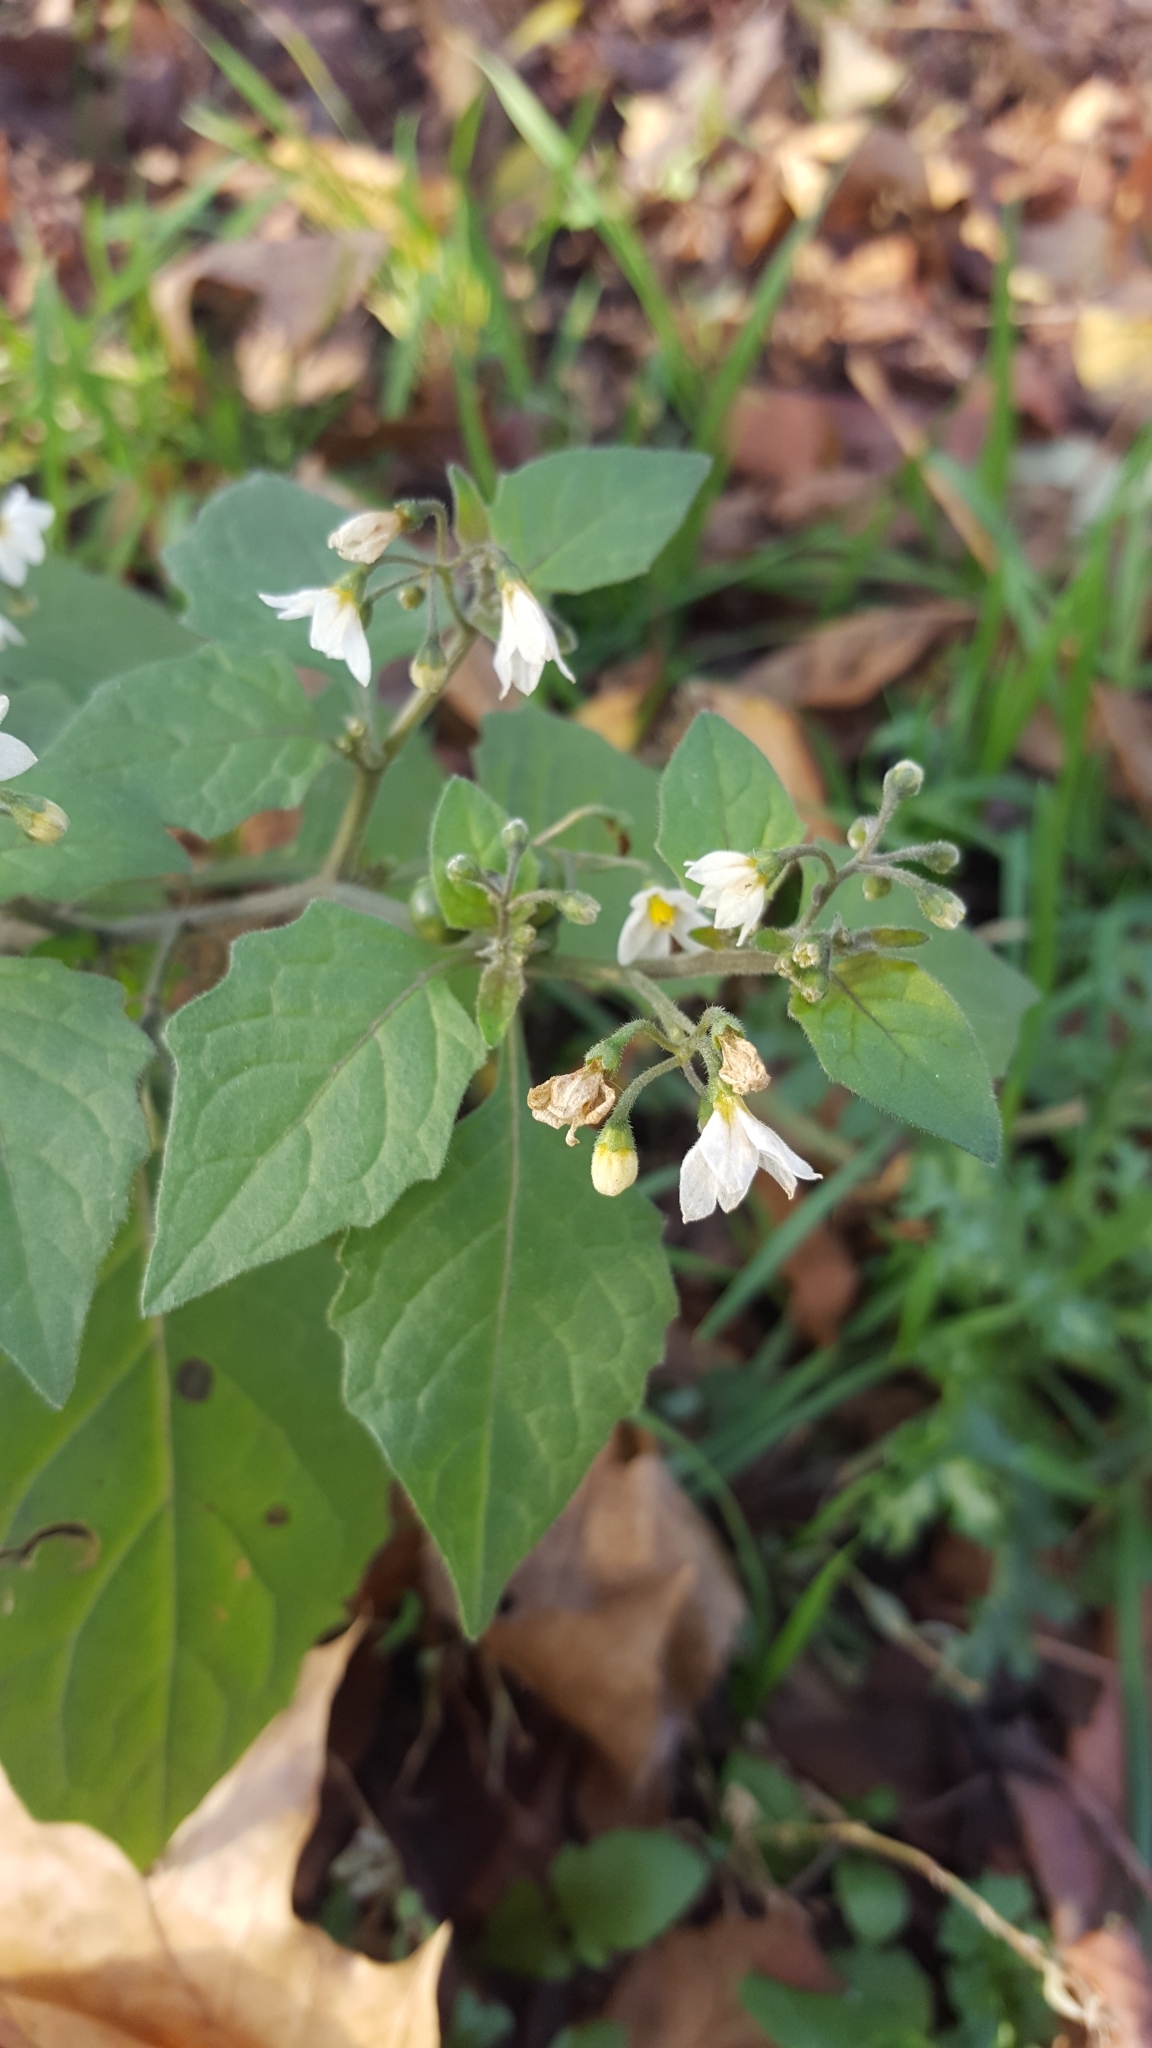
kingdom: Plantae
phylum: Tracheophyta
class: Magnoliopsida
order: Solanales
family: Solanaceae
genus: Solanum
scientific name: Solanum nigrum
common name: Black nightshade
